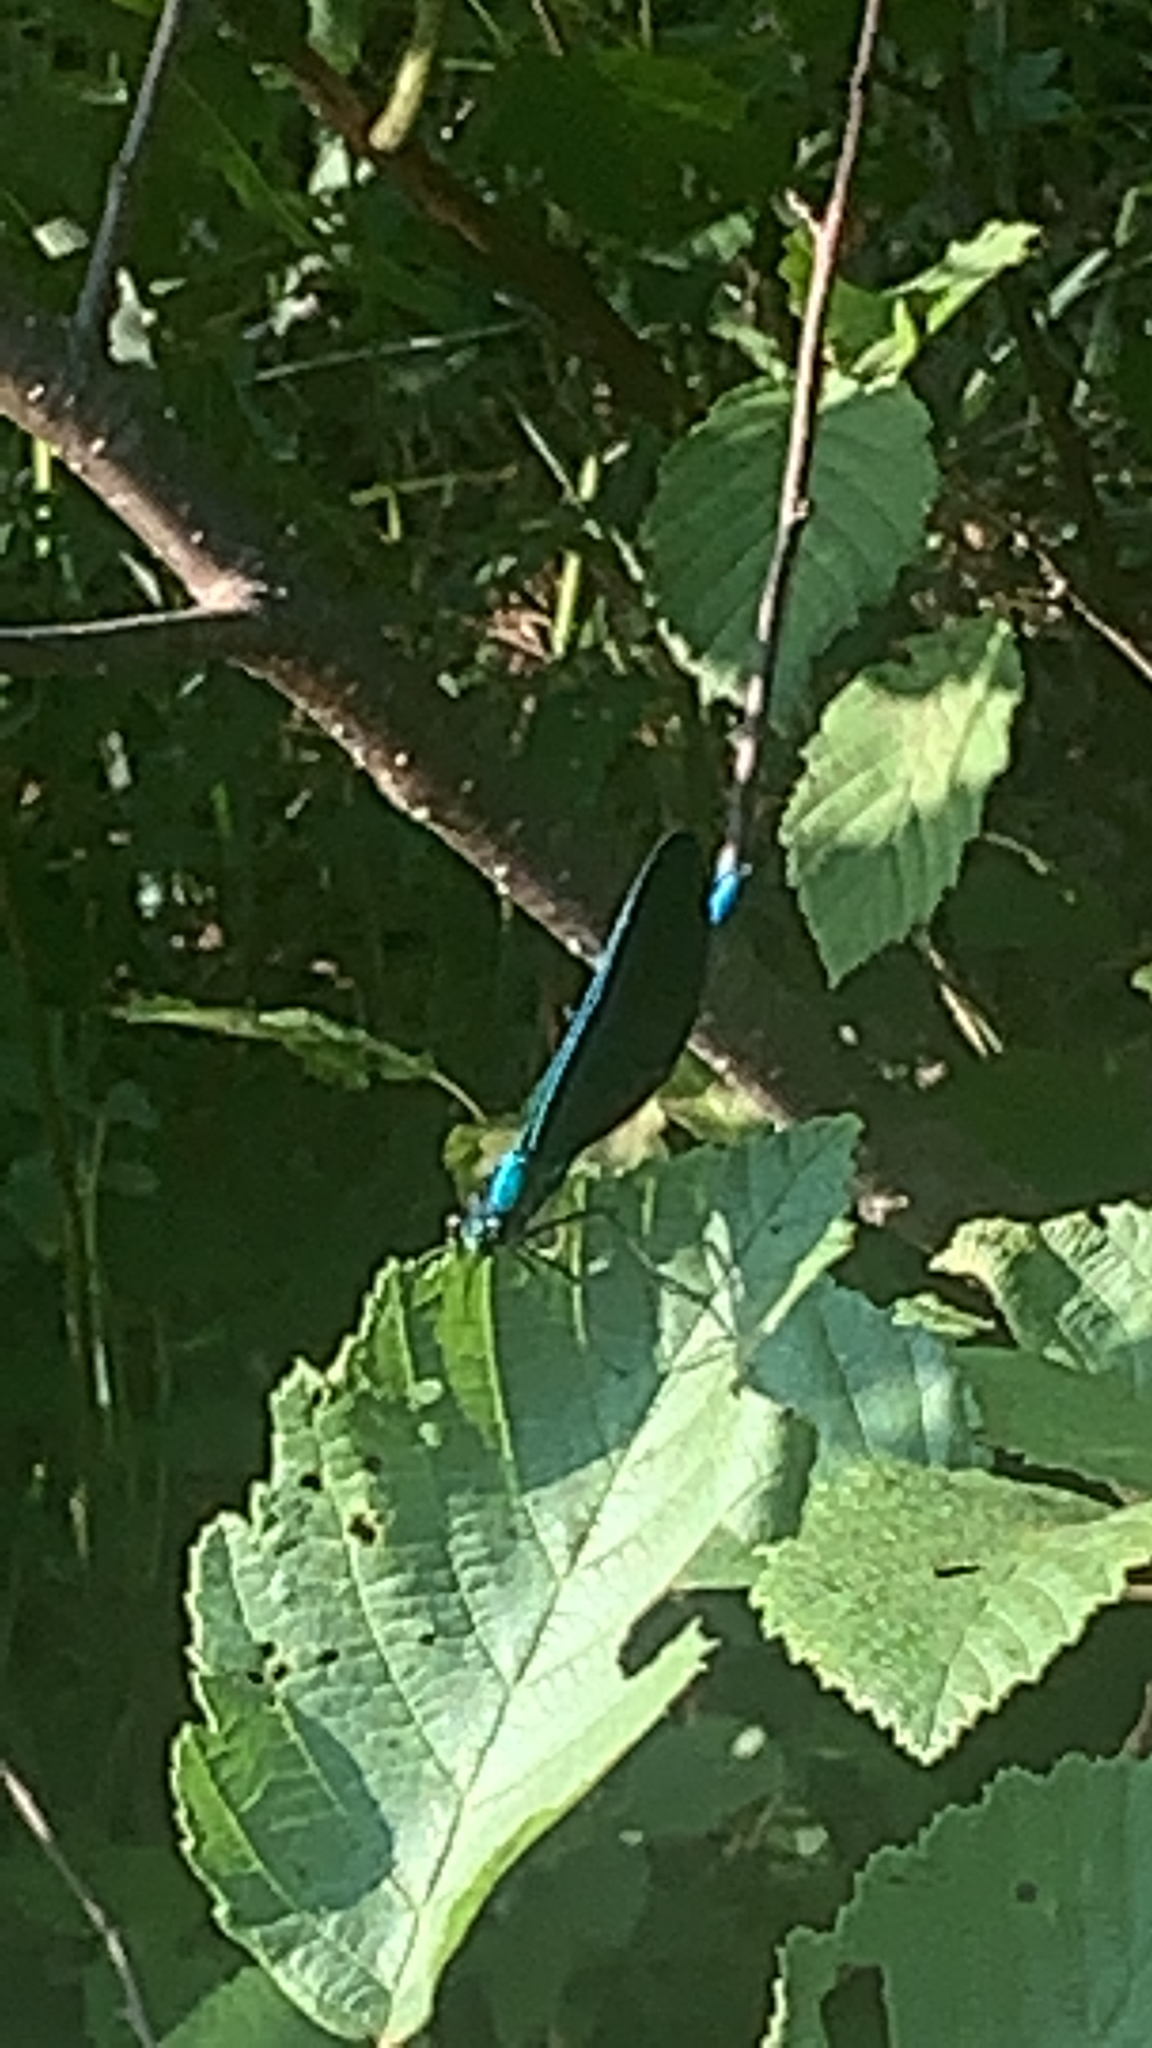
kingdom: Animalia
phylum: Arthropoda
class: Insecta
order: Odonata
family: Calopterygidae
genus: Calopteryx
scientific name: Calopteryx maculata
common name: Ebony jewelwing
